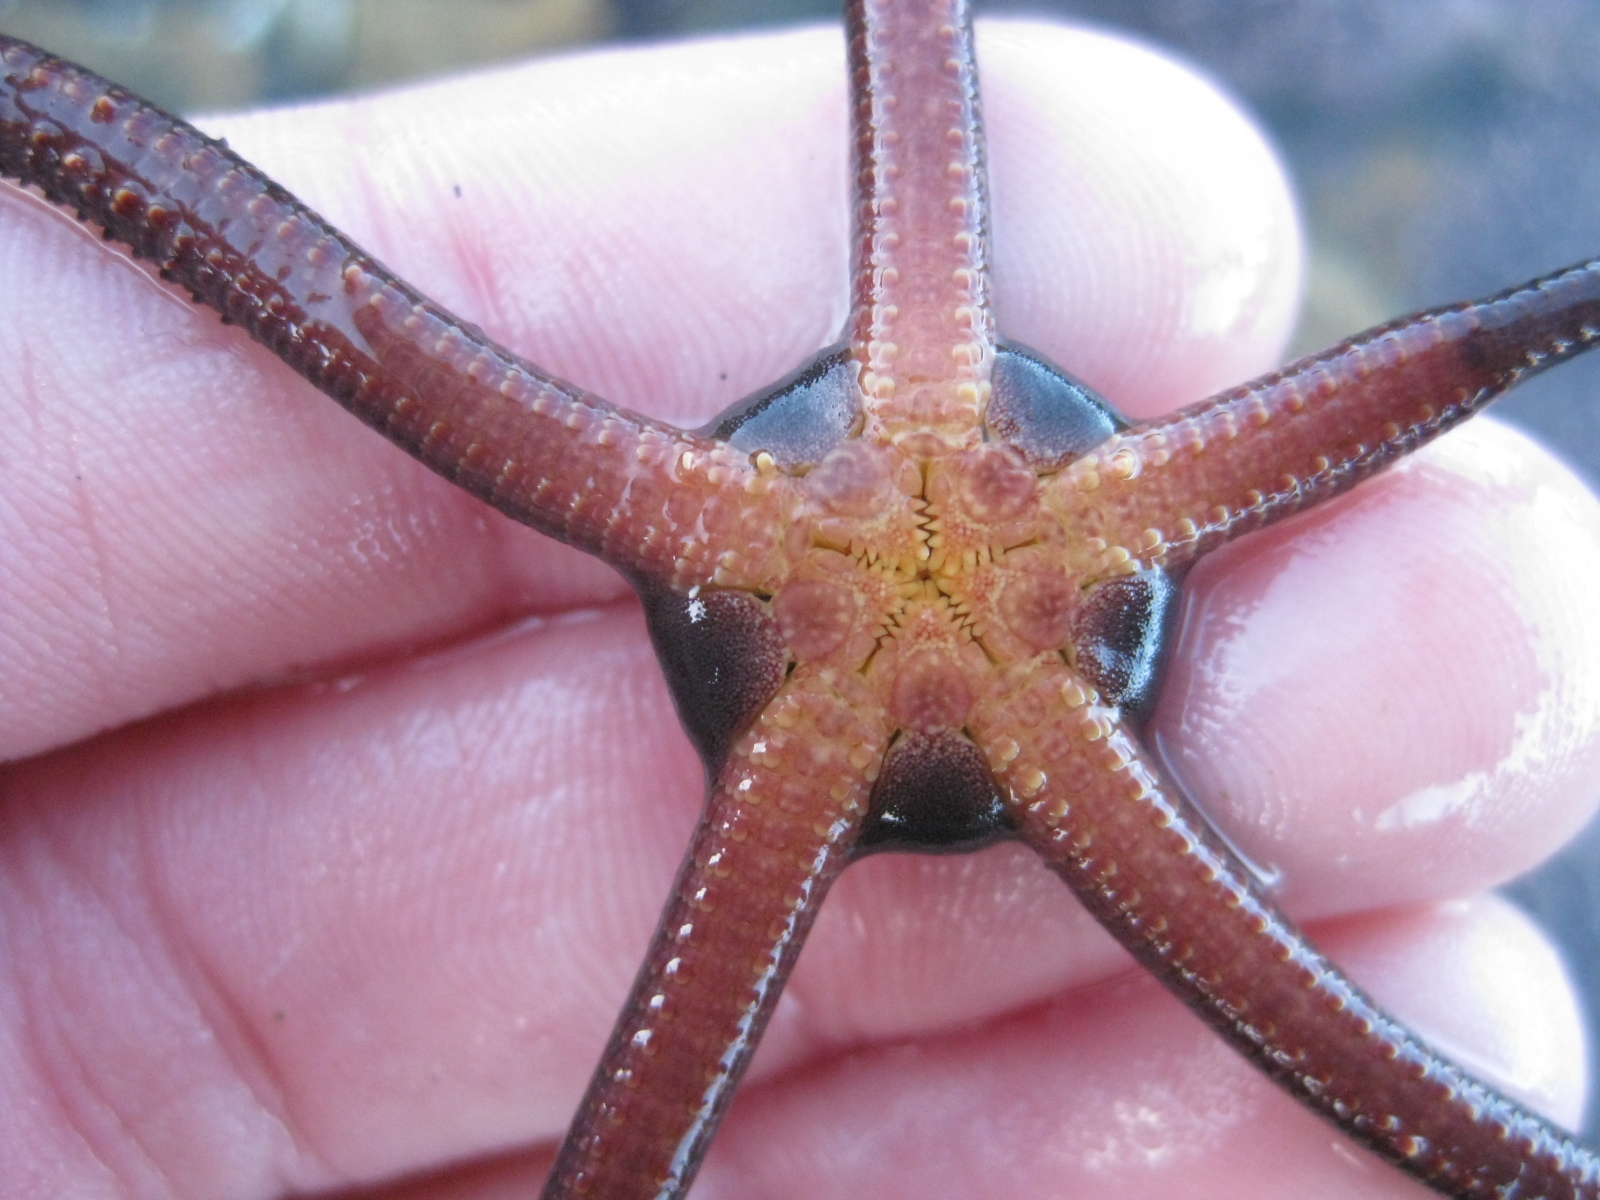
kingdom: Animalia
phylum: Echinodermata
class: Ophiuroidea
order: Ophiacanthida
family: Ophiodermatidae
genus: Ophiopsammus
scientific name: Ophiopsammus maculata
